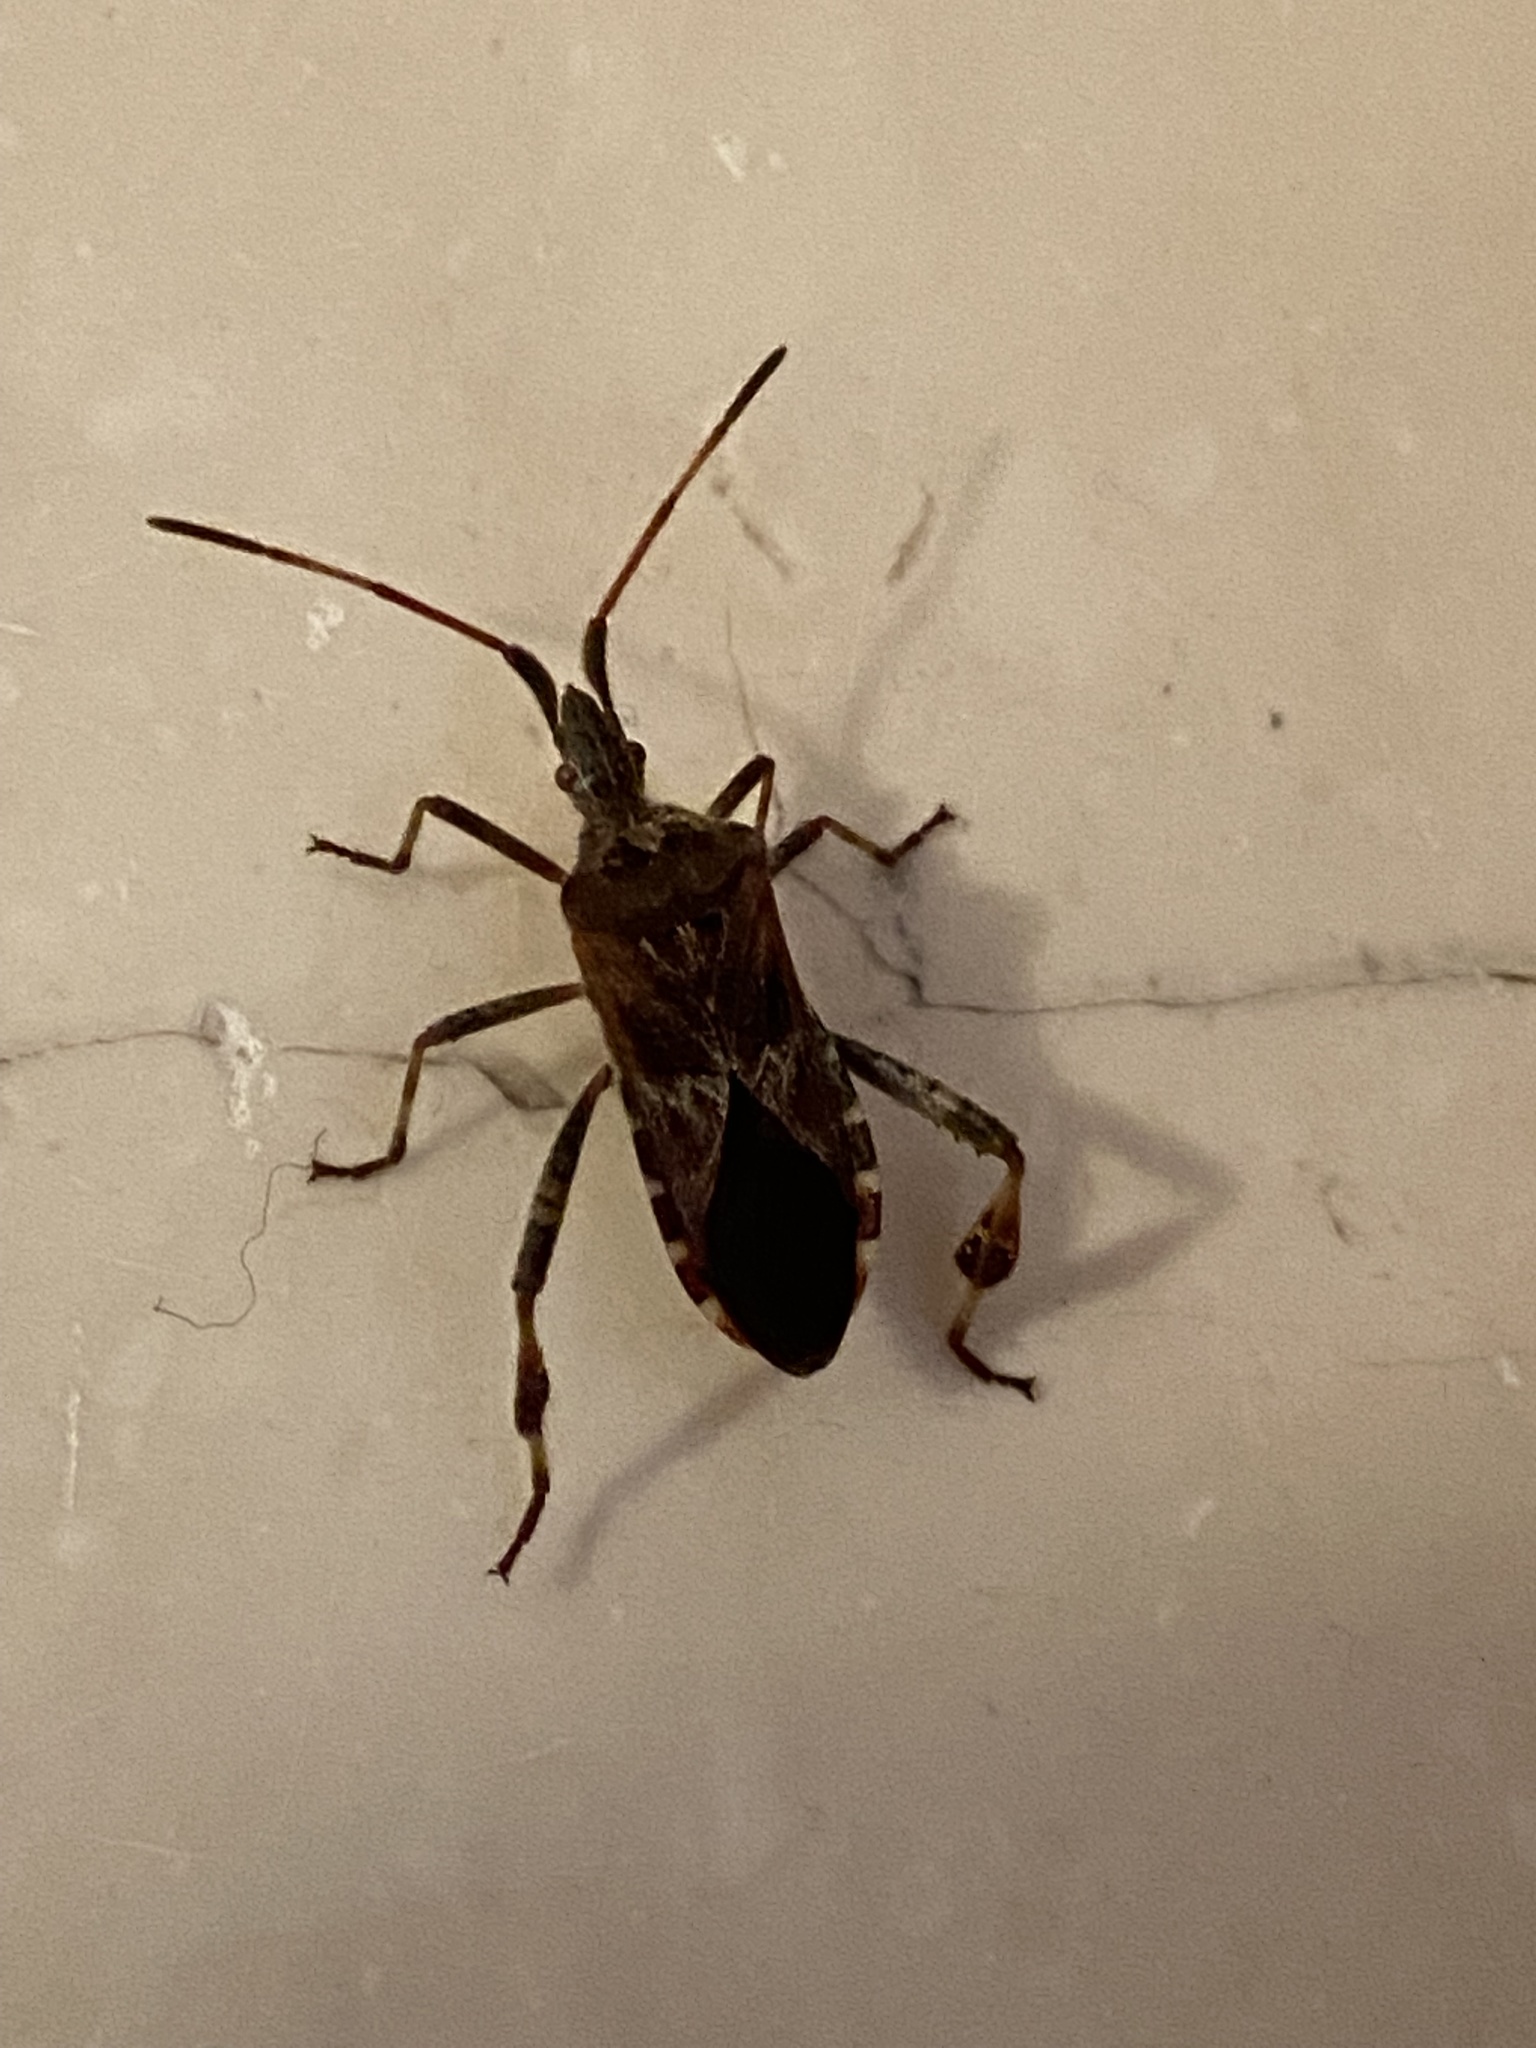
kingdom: Animalia
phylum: Arthropoda
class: Insecta
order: Hemiptera
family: Coreidae
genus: Leptoglossus
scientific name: Leptoglossus occidentalis
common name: Western conifer-seed bug
